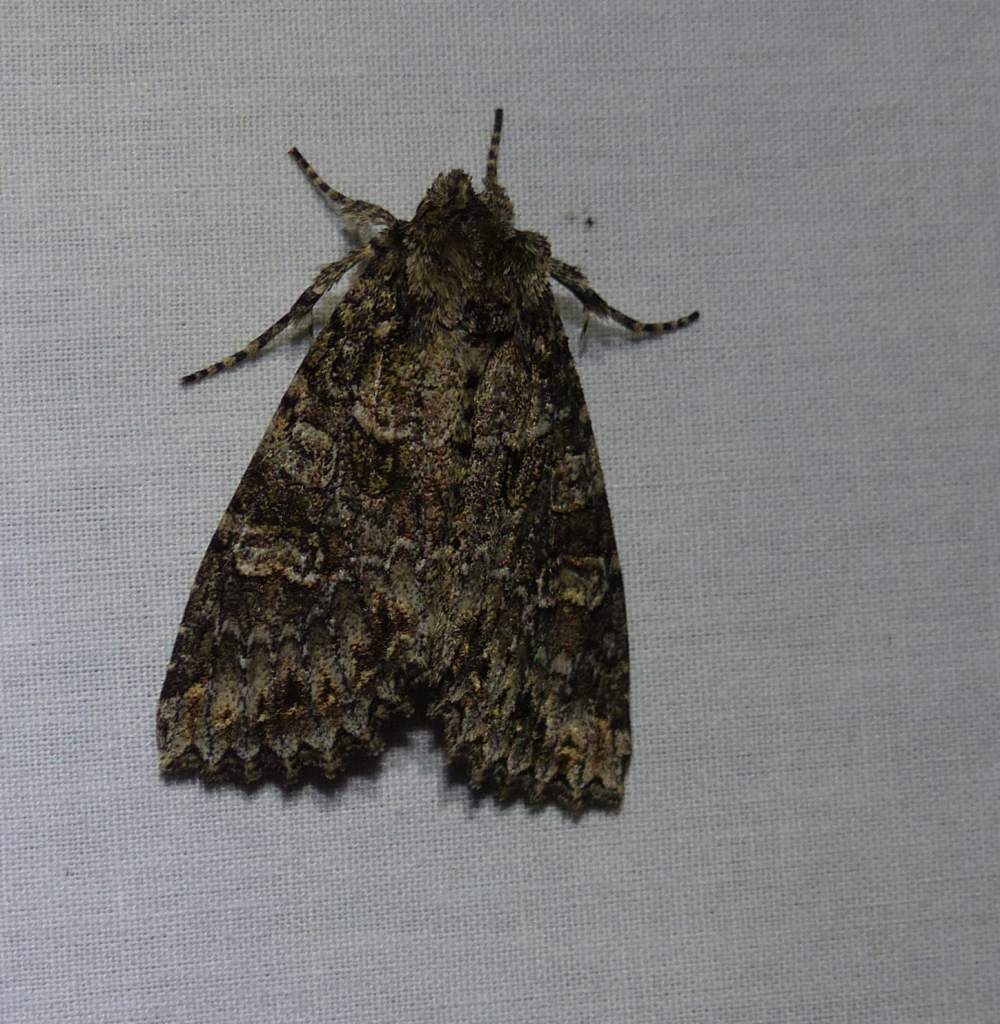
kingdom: Animalia
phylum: Arthropoda
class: Insecta
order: Lepidoptera
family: Noctuidae
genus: Polia
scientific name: Polia imbrifera
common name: Cloudy arches moth
